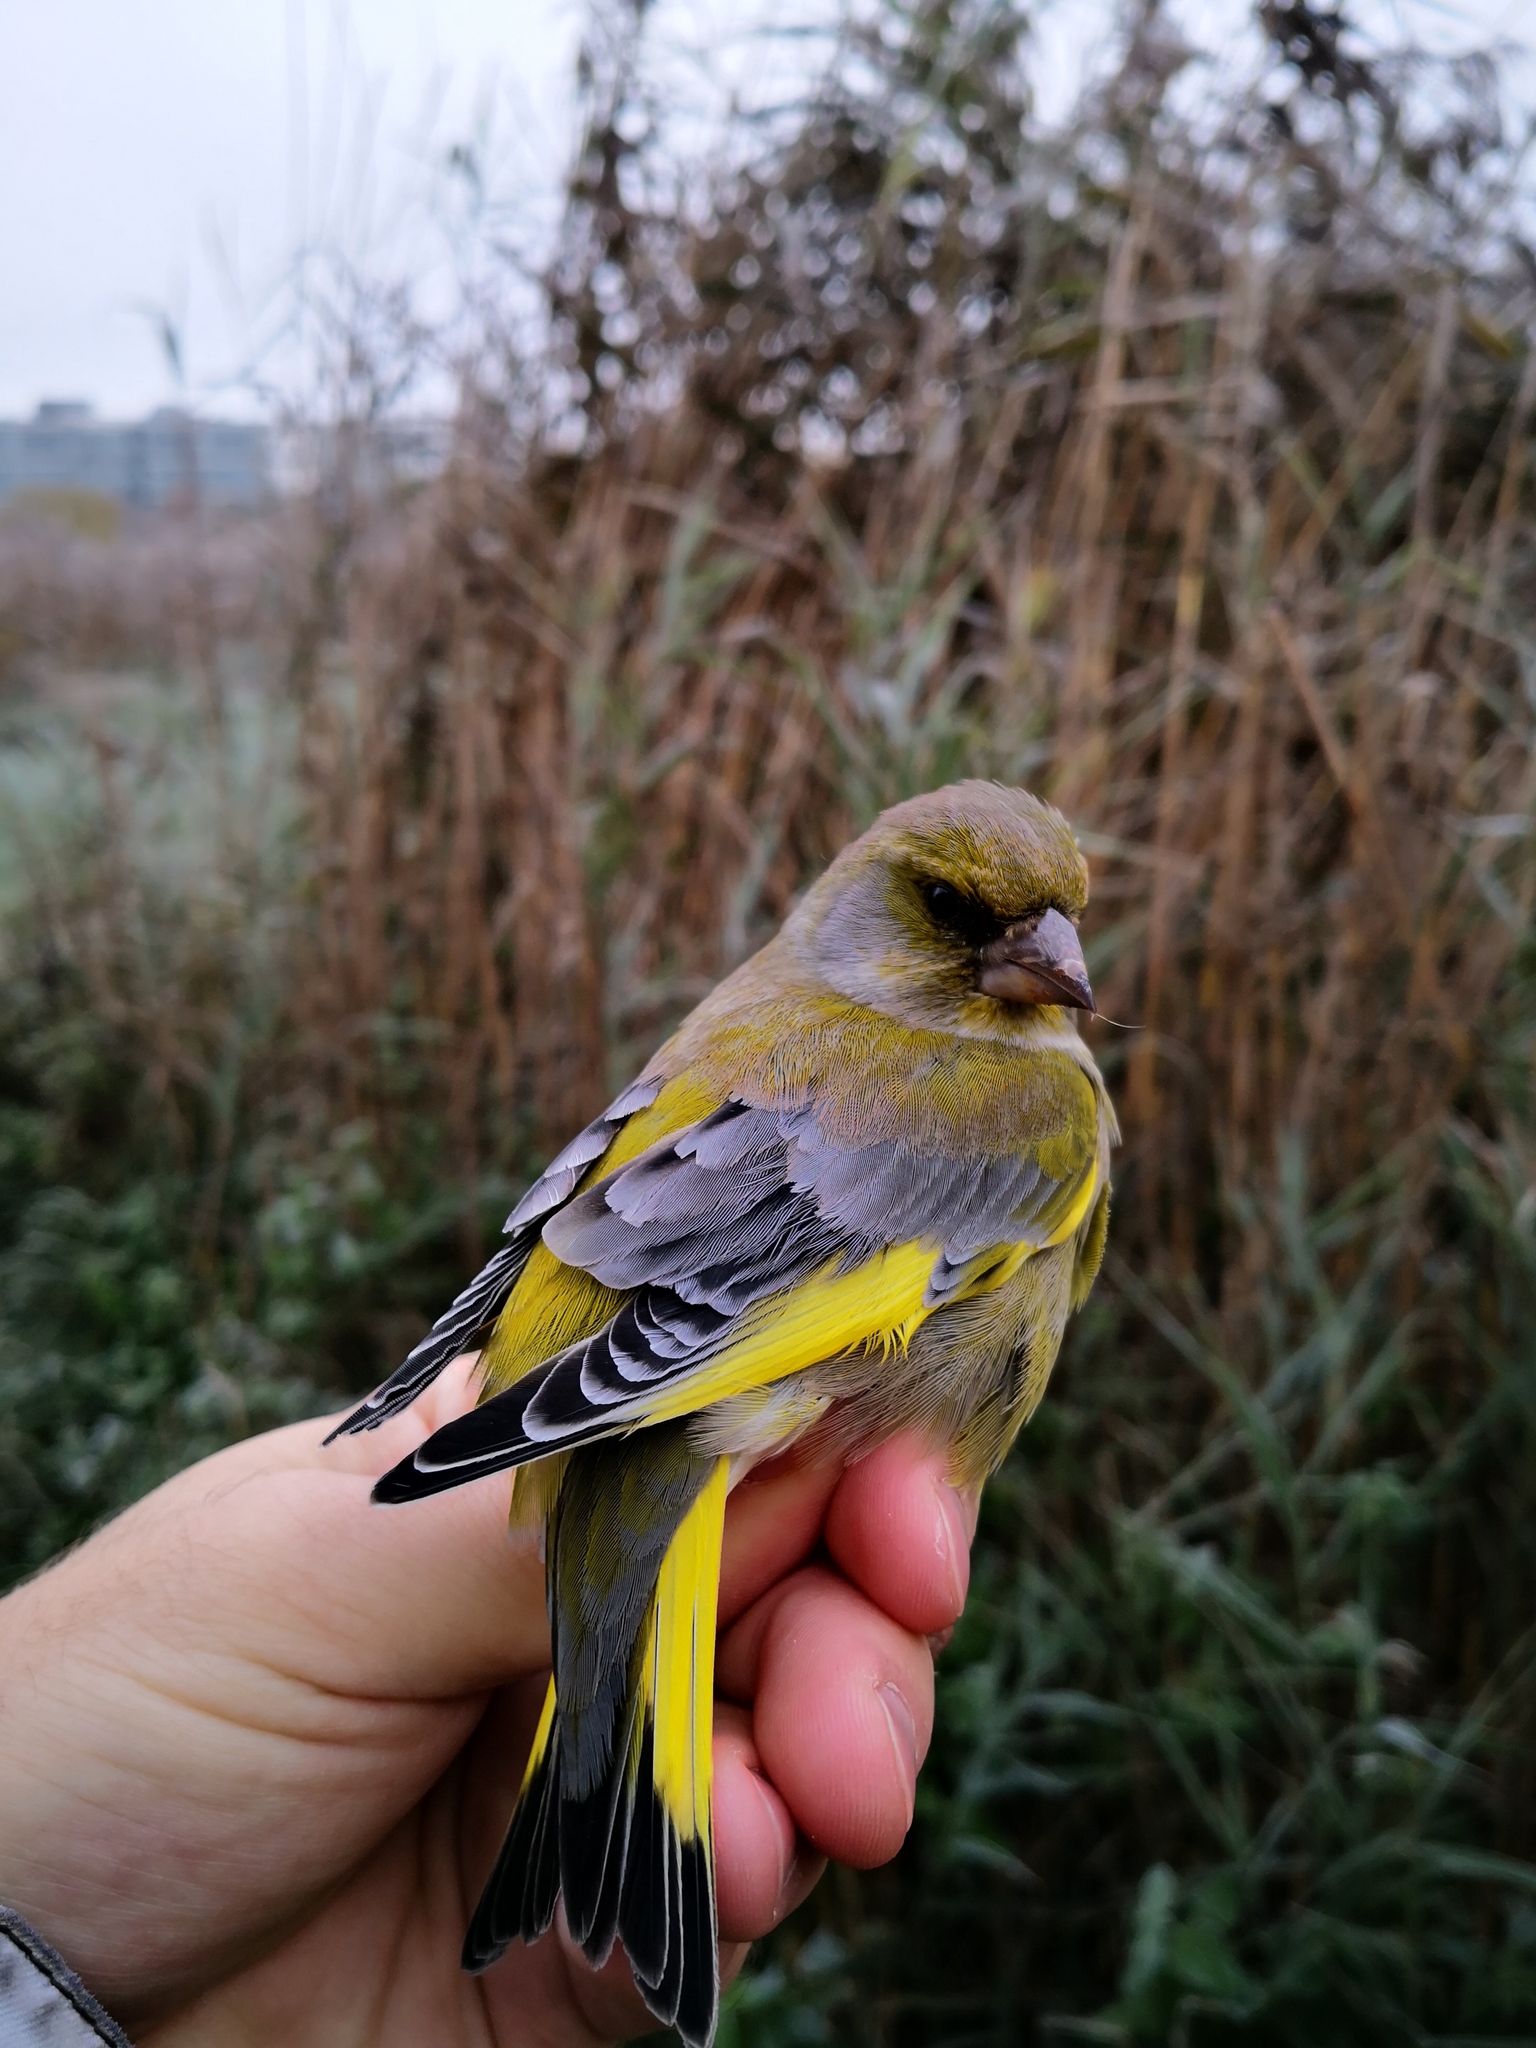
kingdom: Plantae
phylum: Tracheophyta
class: Liliopsida
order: Poales
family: Poaceae
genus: Chloris
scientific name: Chloris chloris
